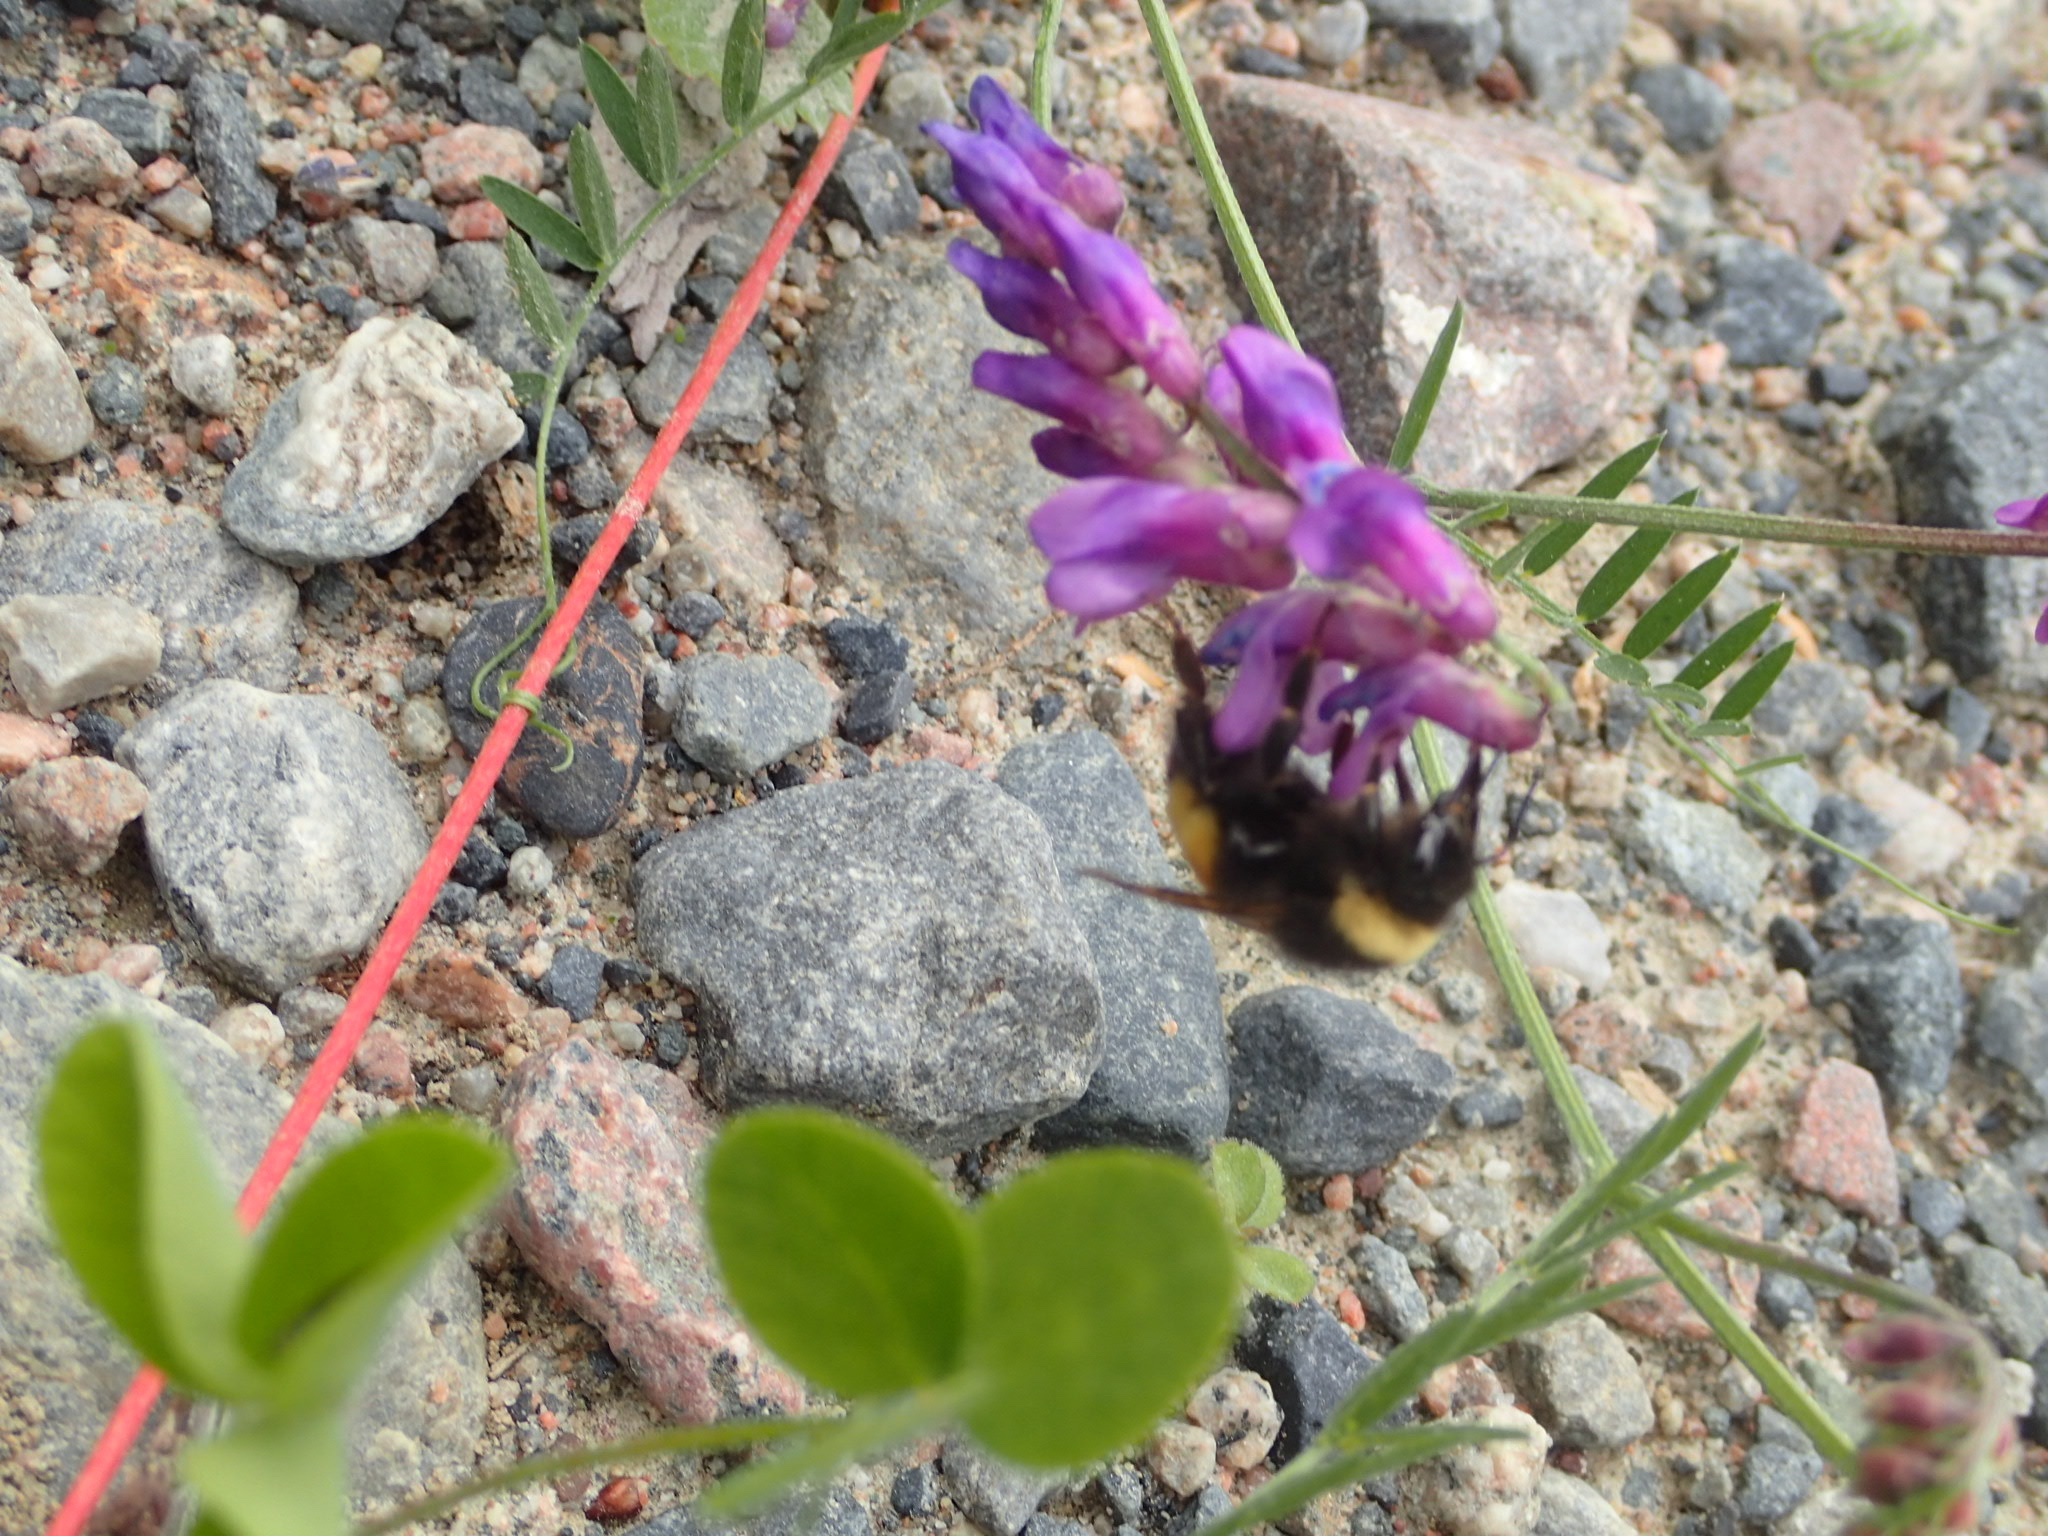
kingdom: Animalia
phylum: Arthropoda
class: Insecta
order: Hymenoptera
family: Apidae
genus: Bombus
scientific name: Bombus terricola
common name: Yellow-banded bumble bee
